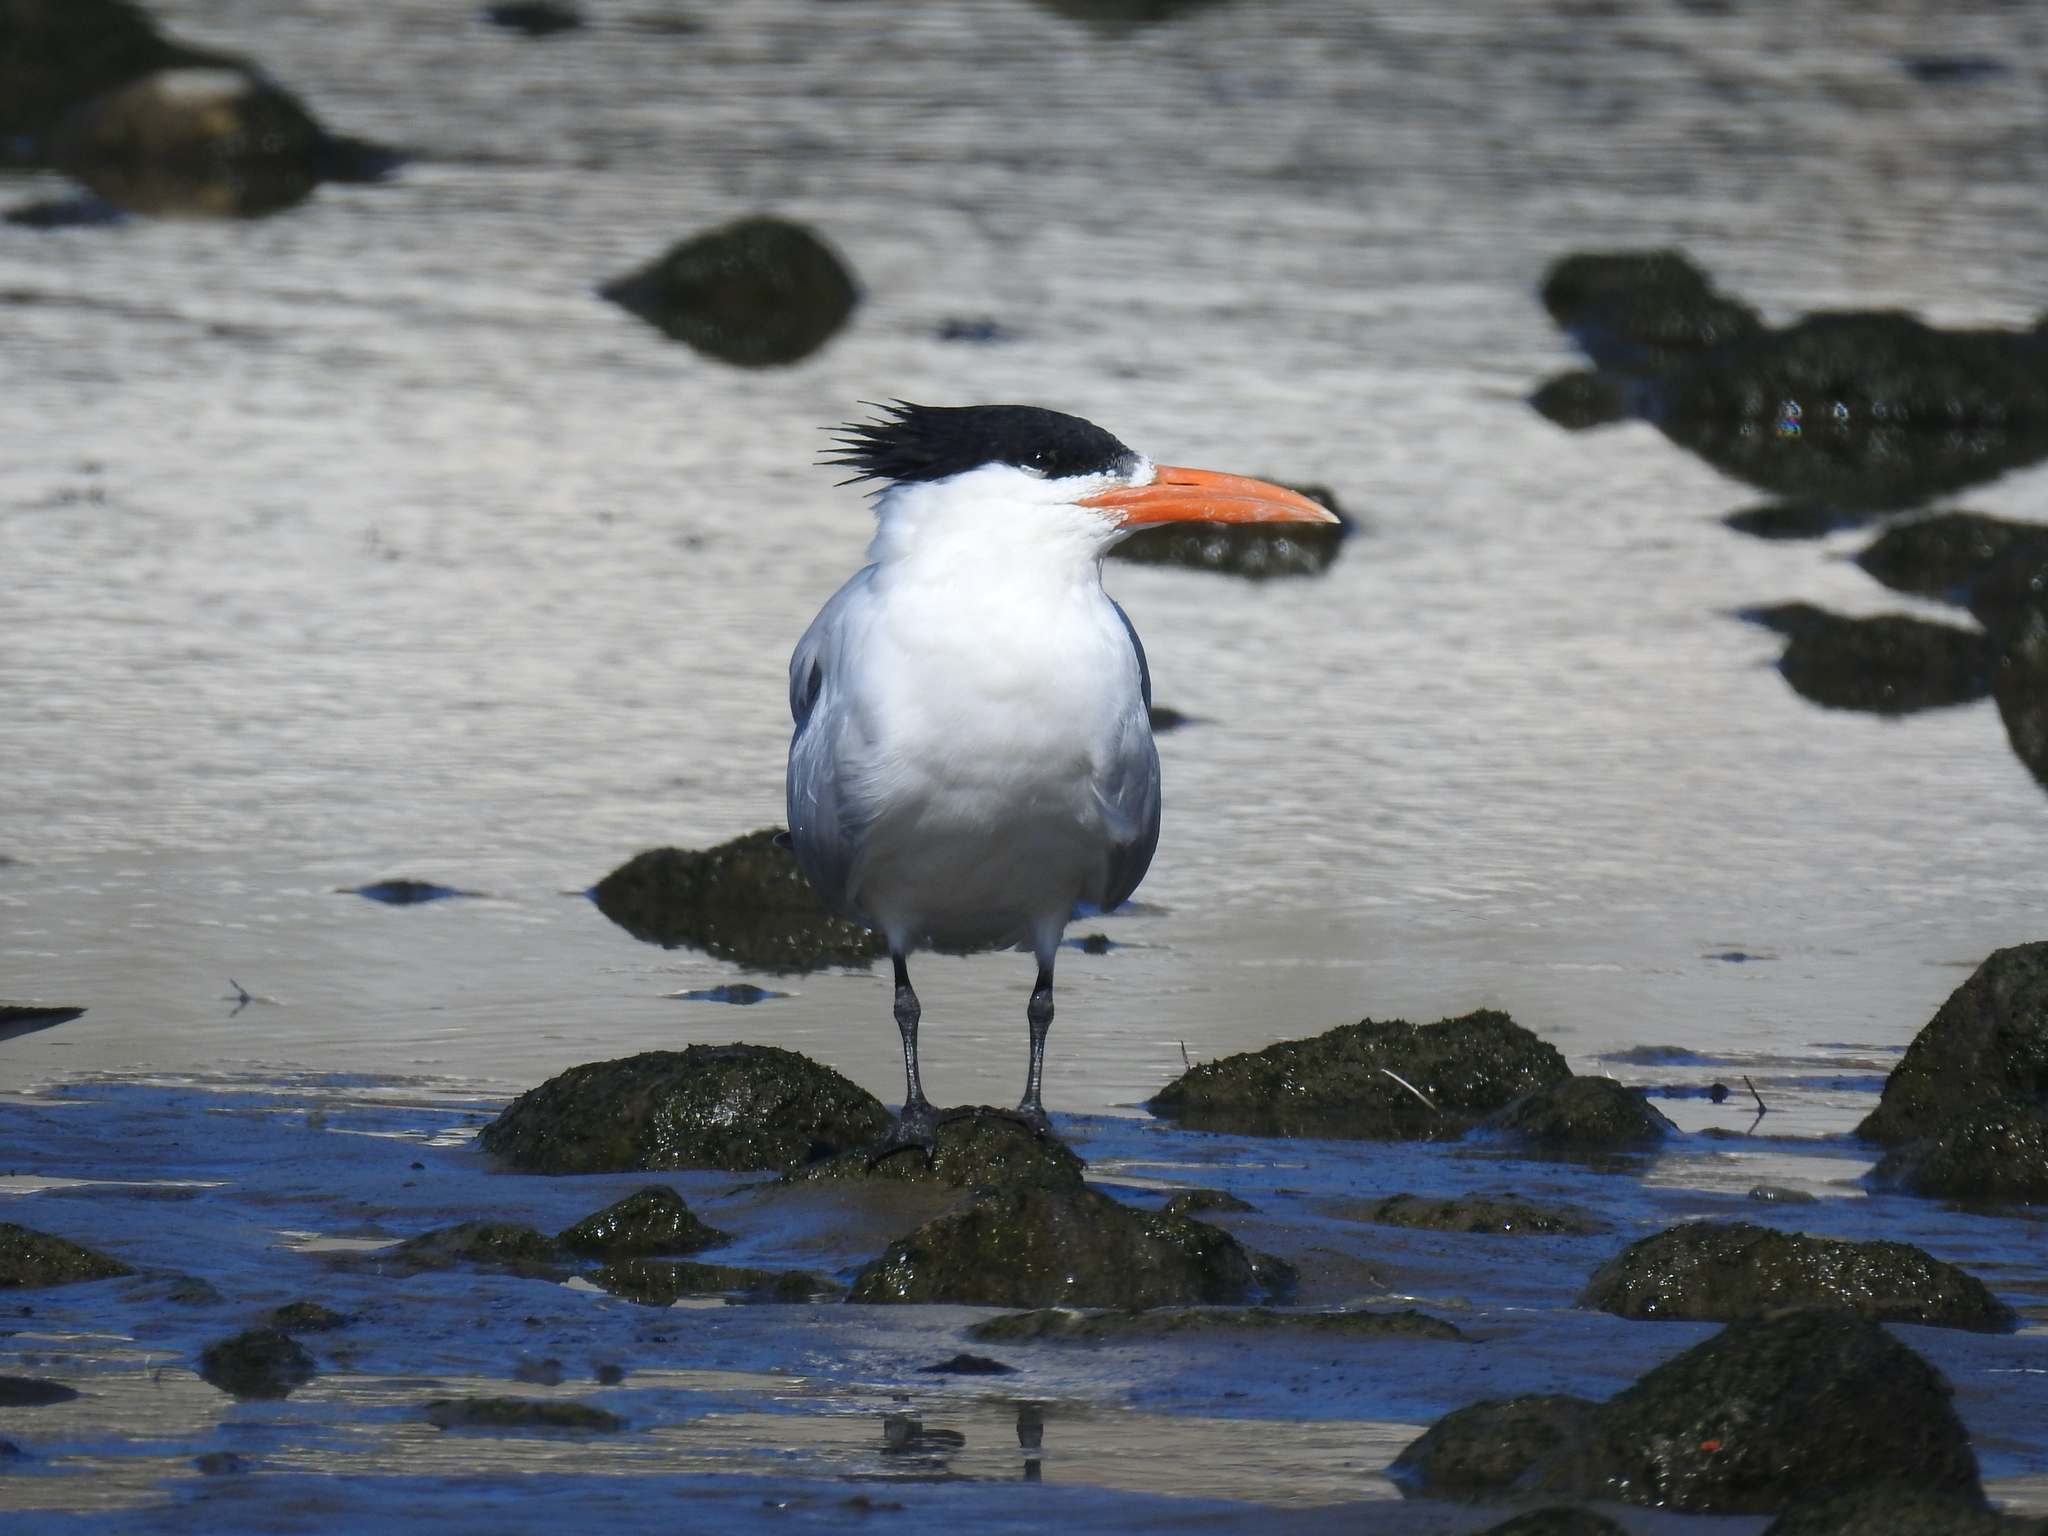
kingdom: Animalia
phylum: Chordata
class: Aves
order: Charadriiformes
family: Laridae
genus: Thalasseus
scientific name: Thalasseus maximus
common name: Royal tern
